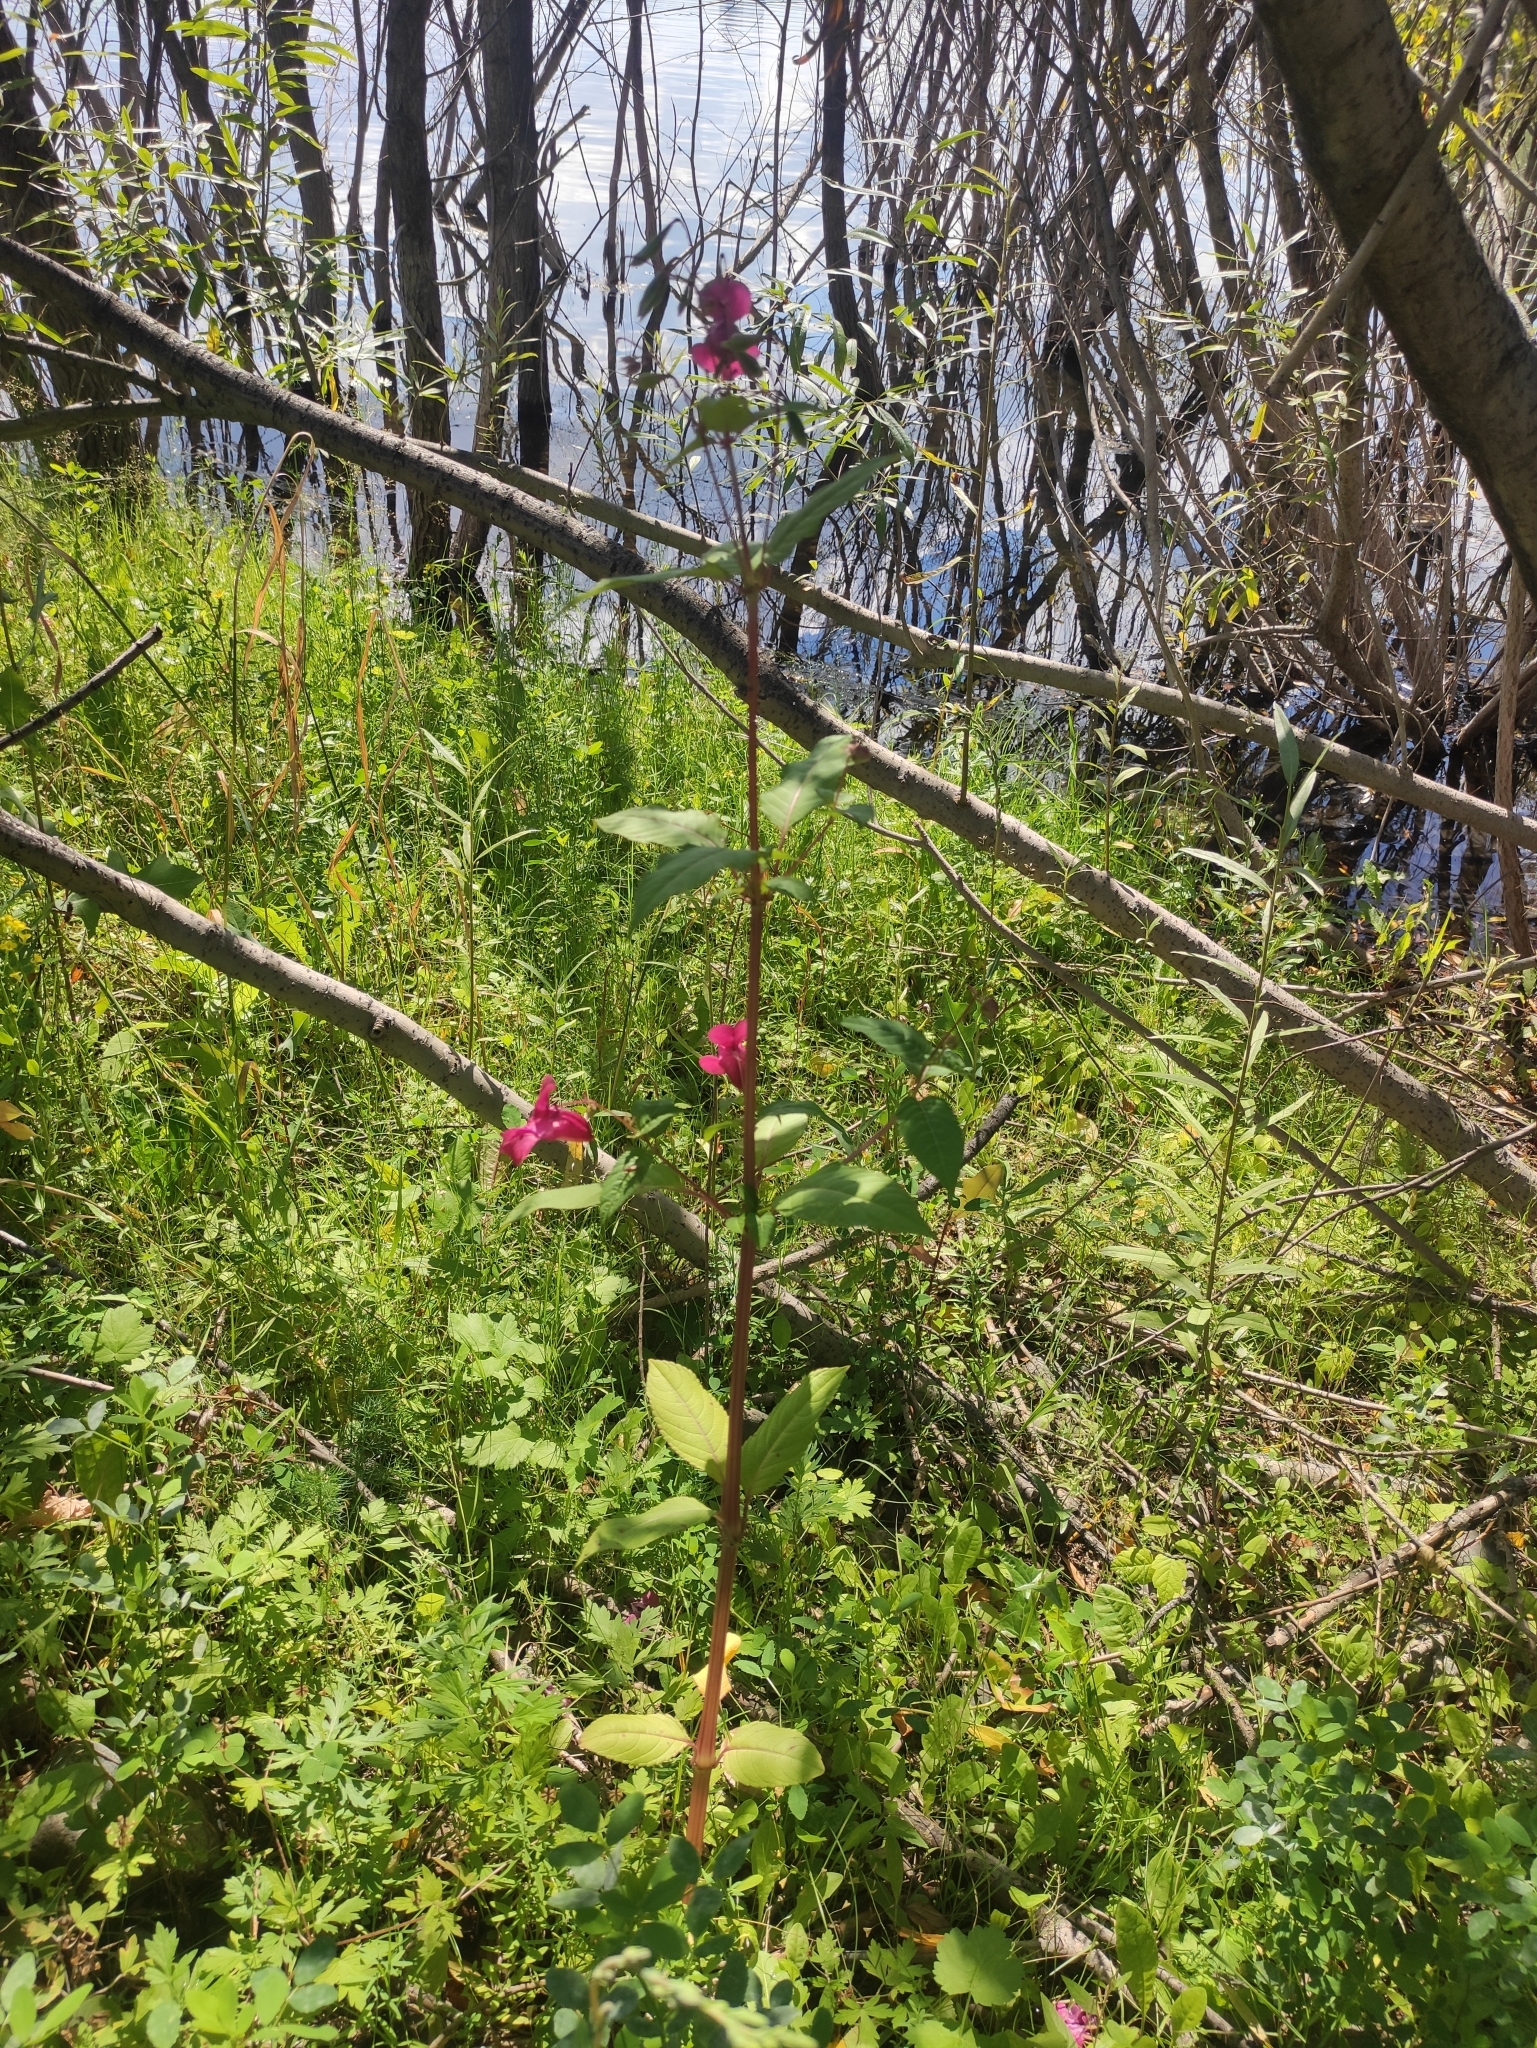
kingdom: Plantae
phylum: Tracheophyta
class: Magnoliopsida
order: Ericales
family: Balsaminaceae
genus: Impatiens
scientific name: Impatiens glandulifera
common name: Himalayan balsam
